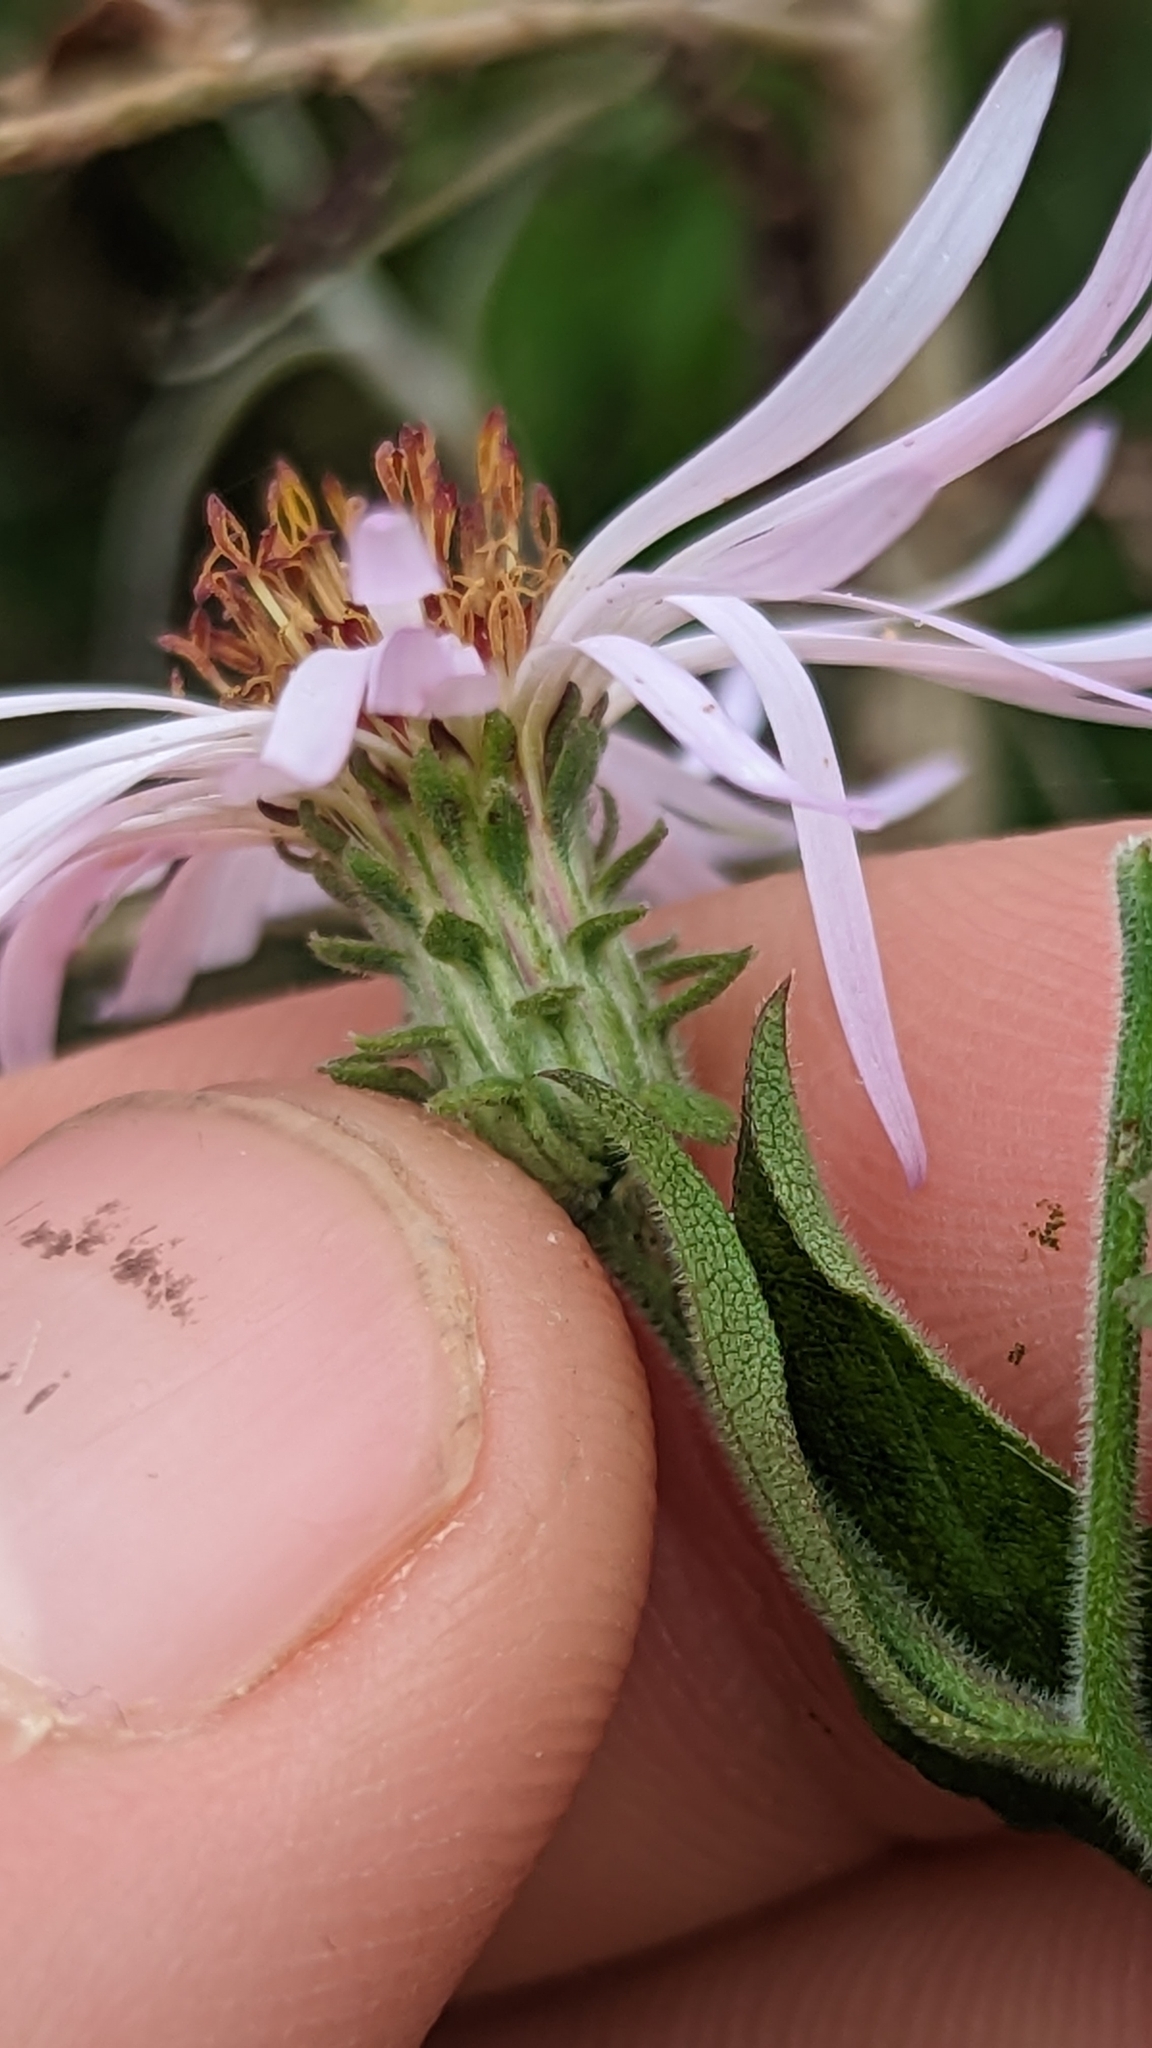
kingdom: Plantae
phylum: Tracheophyta
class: Magnoliopsida
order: Asterales
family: Asteraceae
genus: Ampelaster
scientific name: Ampelaster carolinianus
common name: Climbing aster
